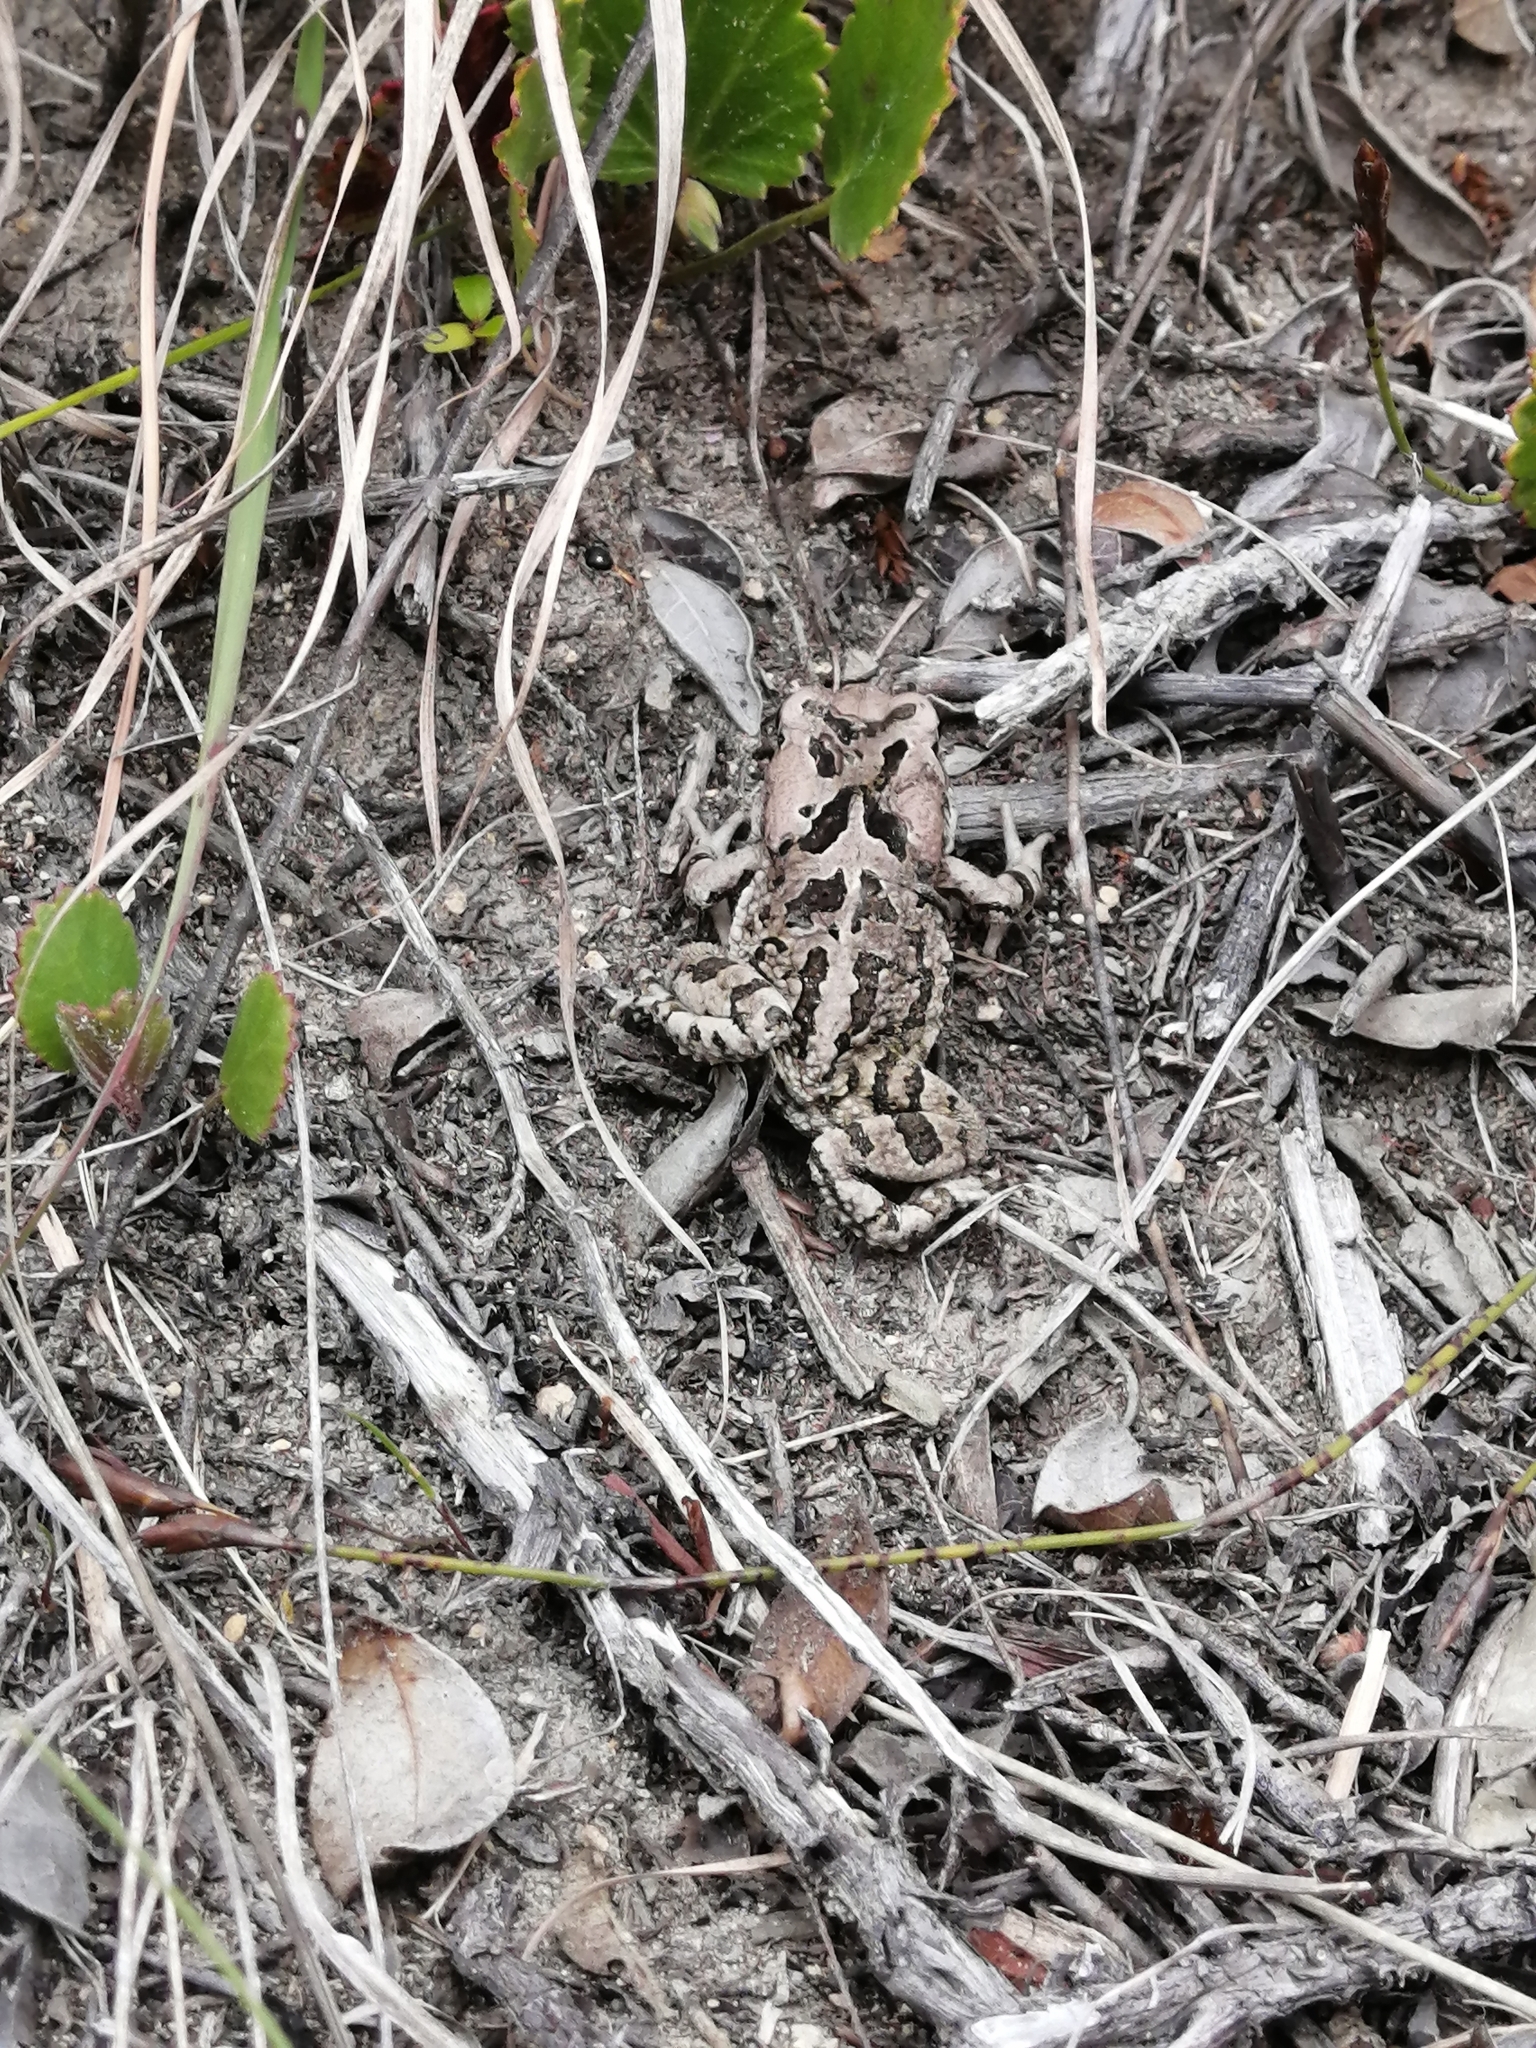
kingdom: Animalia
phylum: Chordata
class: Amphibia
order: Anura
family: Bufonidae
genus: Sclerophrys
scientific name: Sclerophrys capensis
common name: Ranger’s toad
